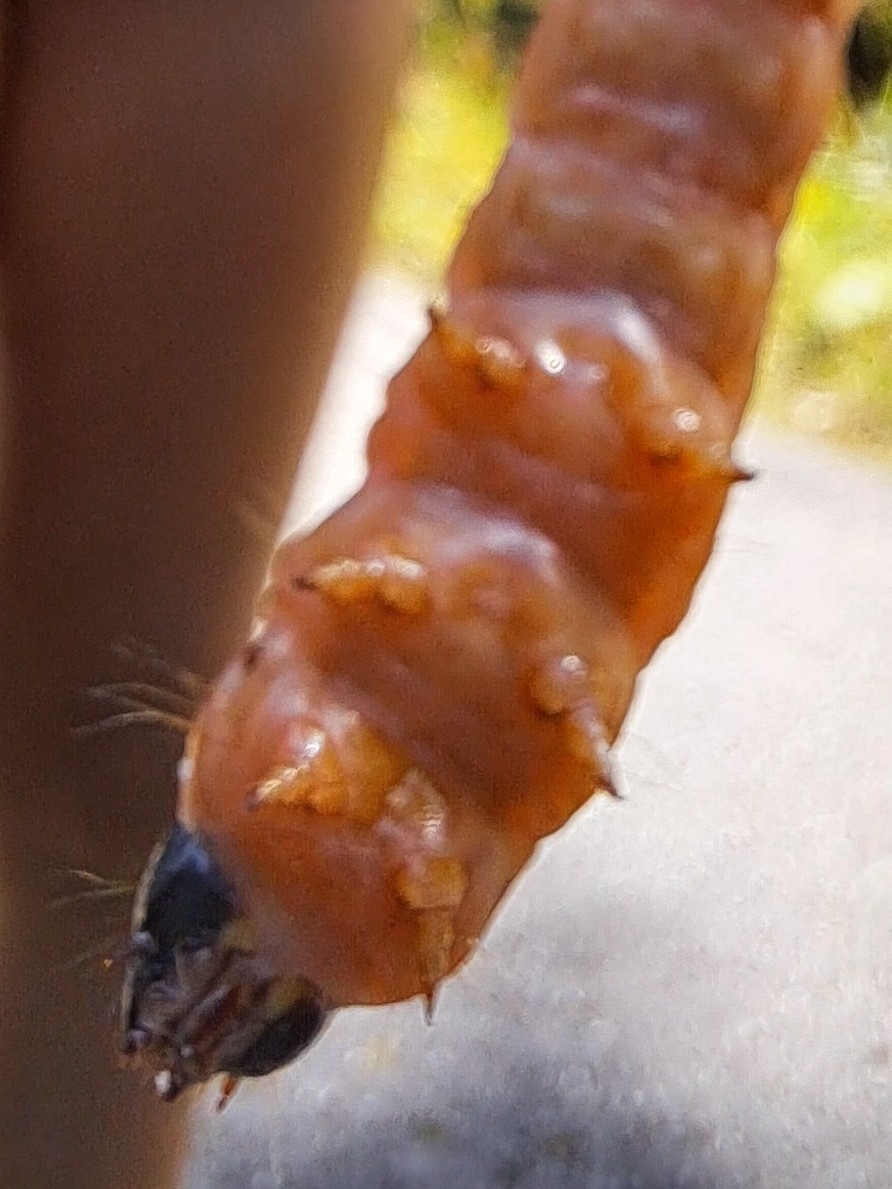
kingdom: Animalia
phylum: Arthropoda
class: Insecta
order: Lepidoptera
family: Cossidae
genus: Cossus
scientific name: Cossus cossus
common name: Goat moth
